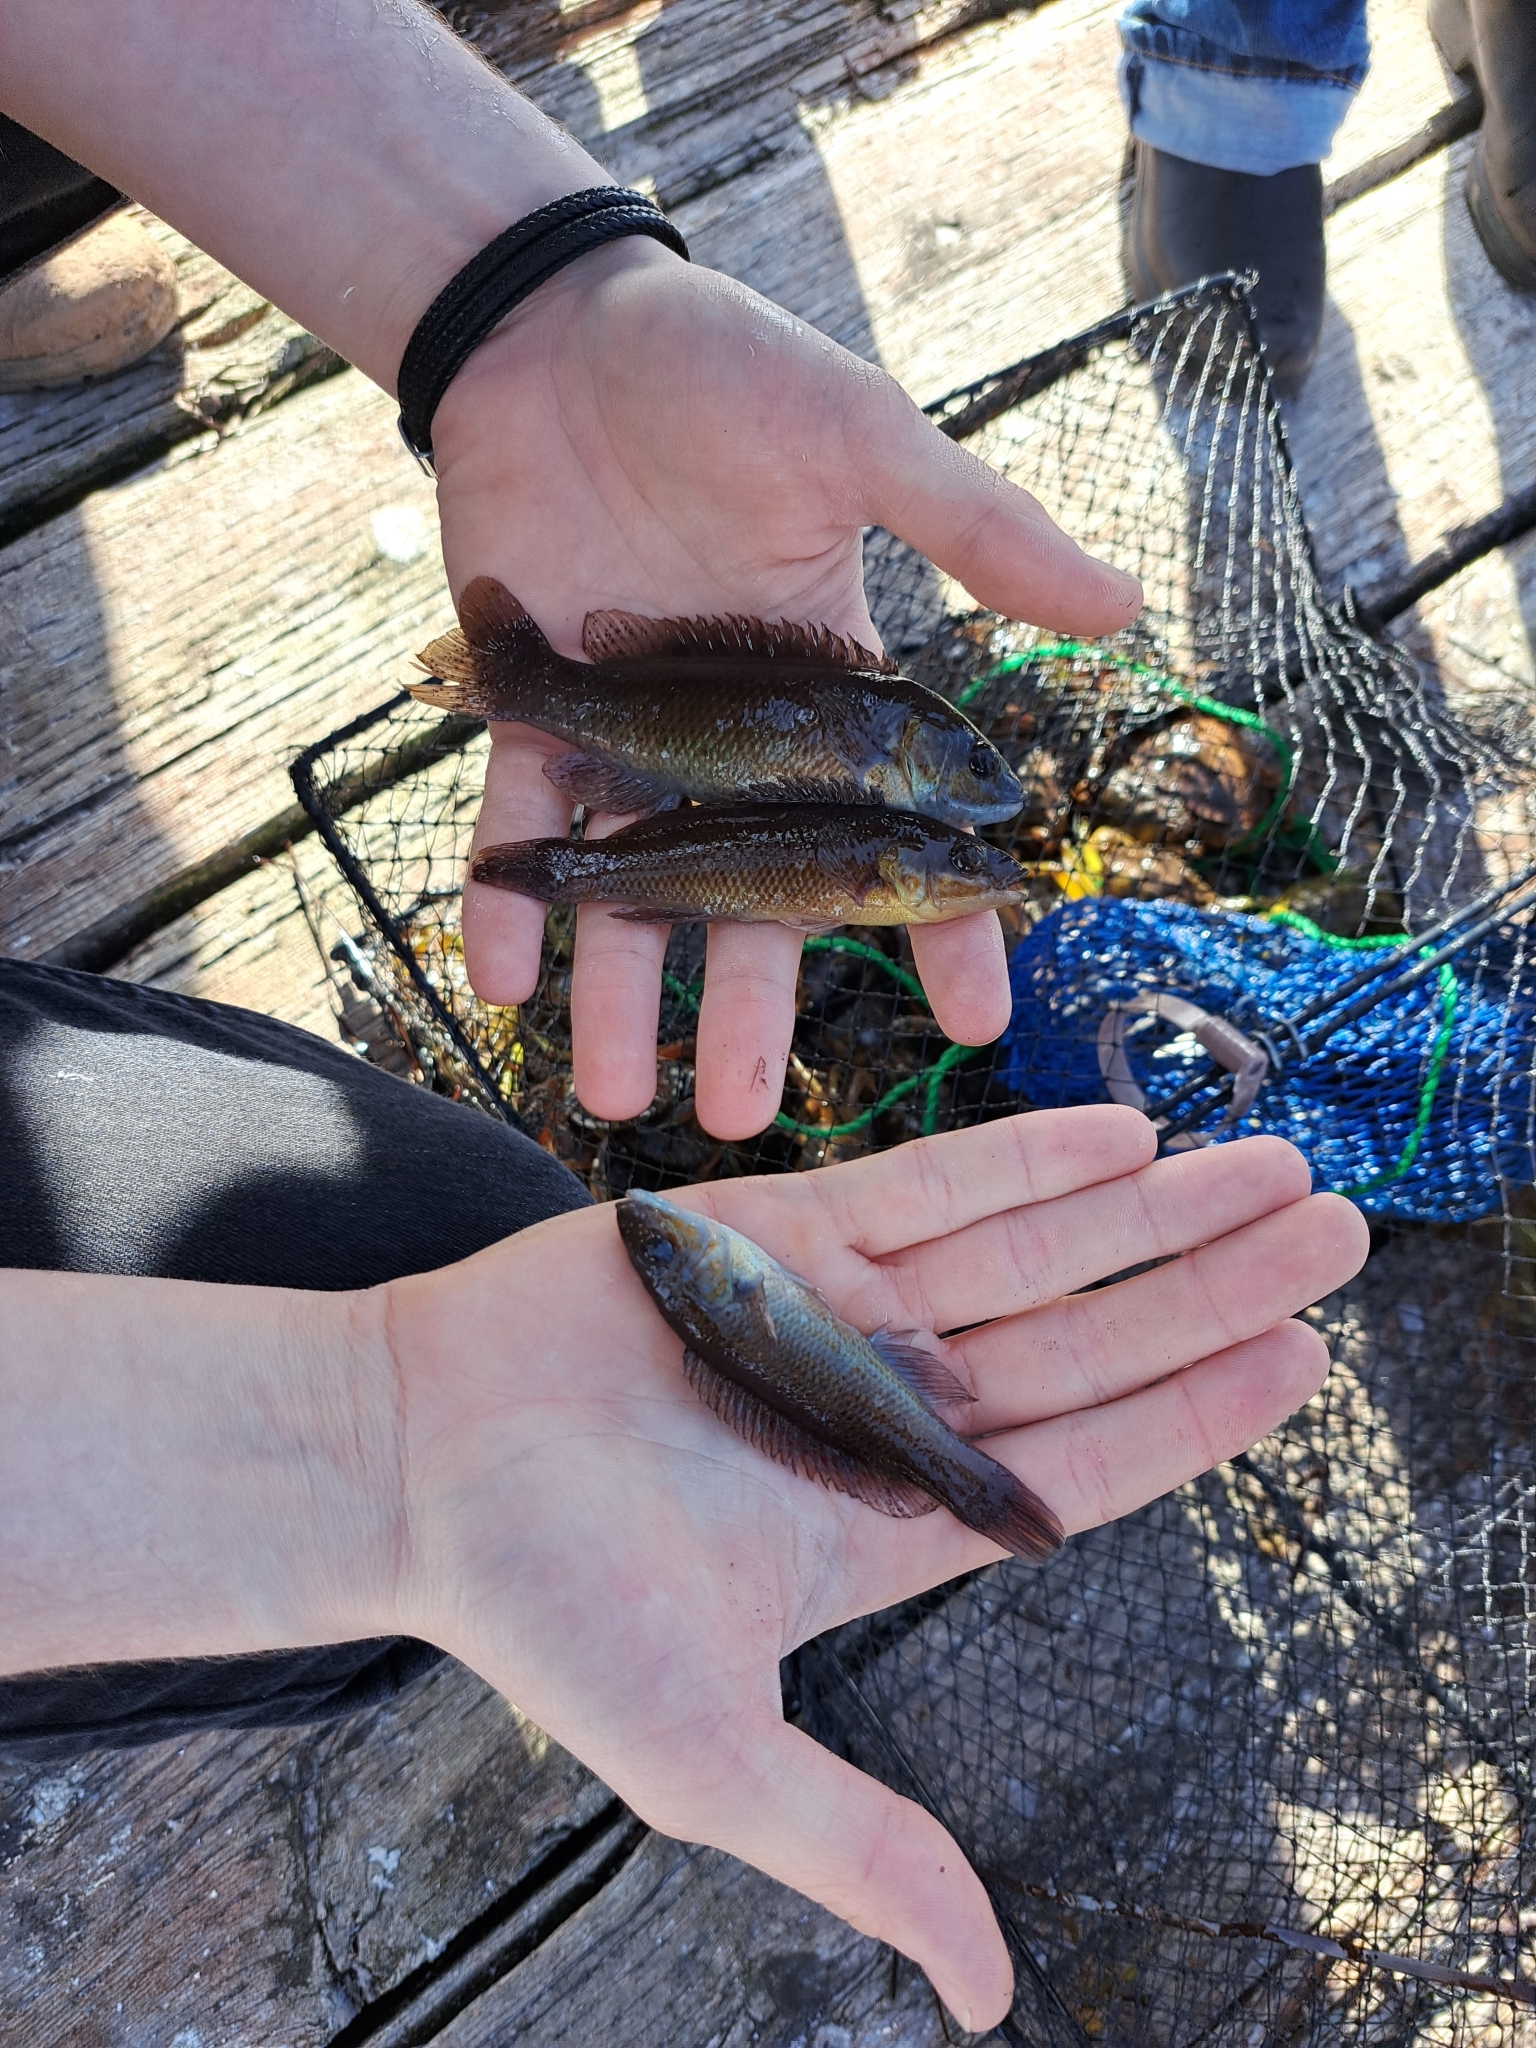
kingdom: Animalia
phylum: Chordata
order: Perciformes
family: Labridae
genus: Tautogolabrus
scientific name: Tautogolabrus adspersus
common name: Cunner
